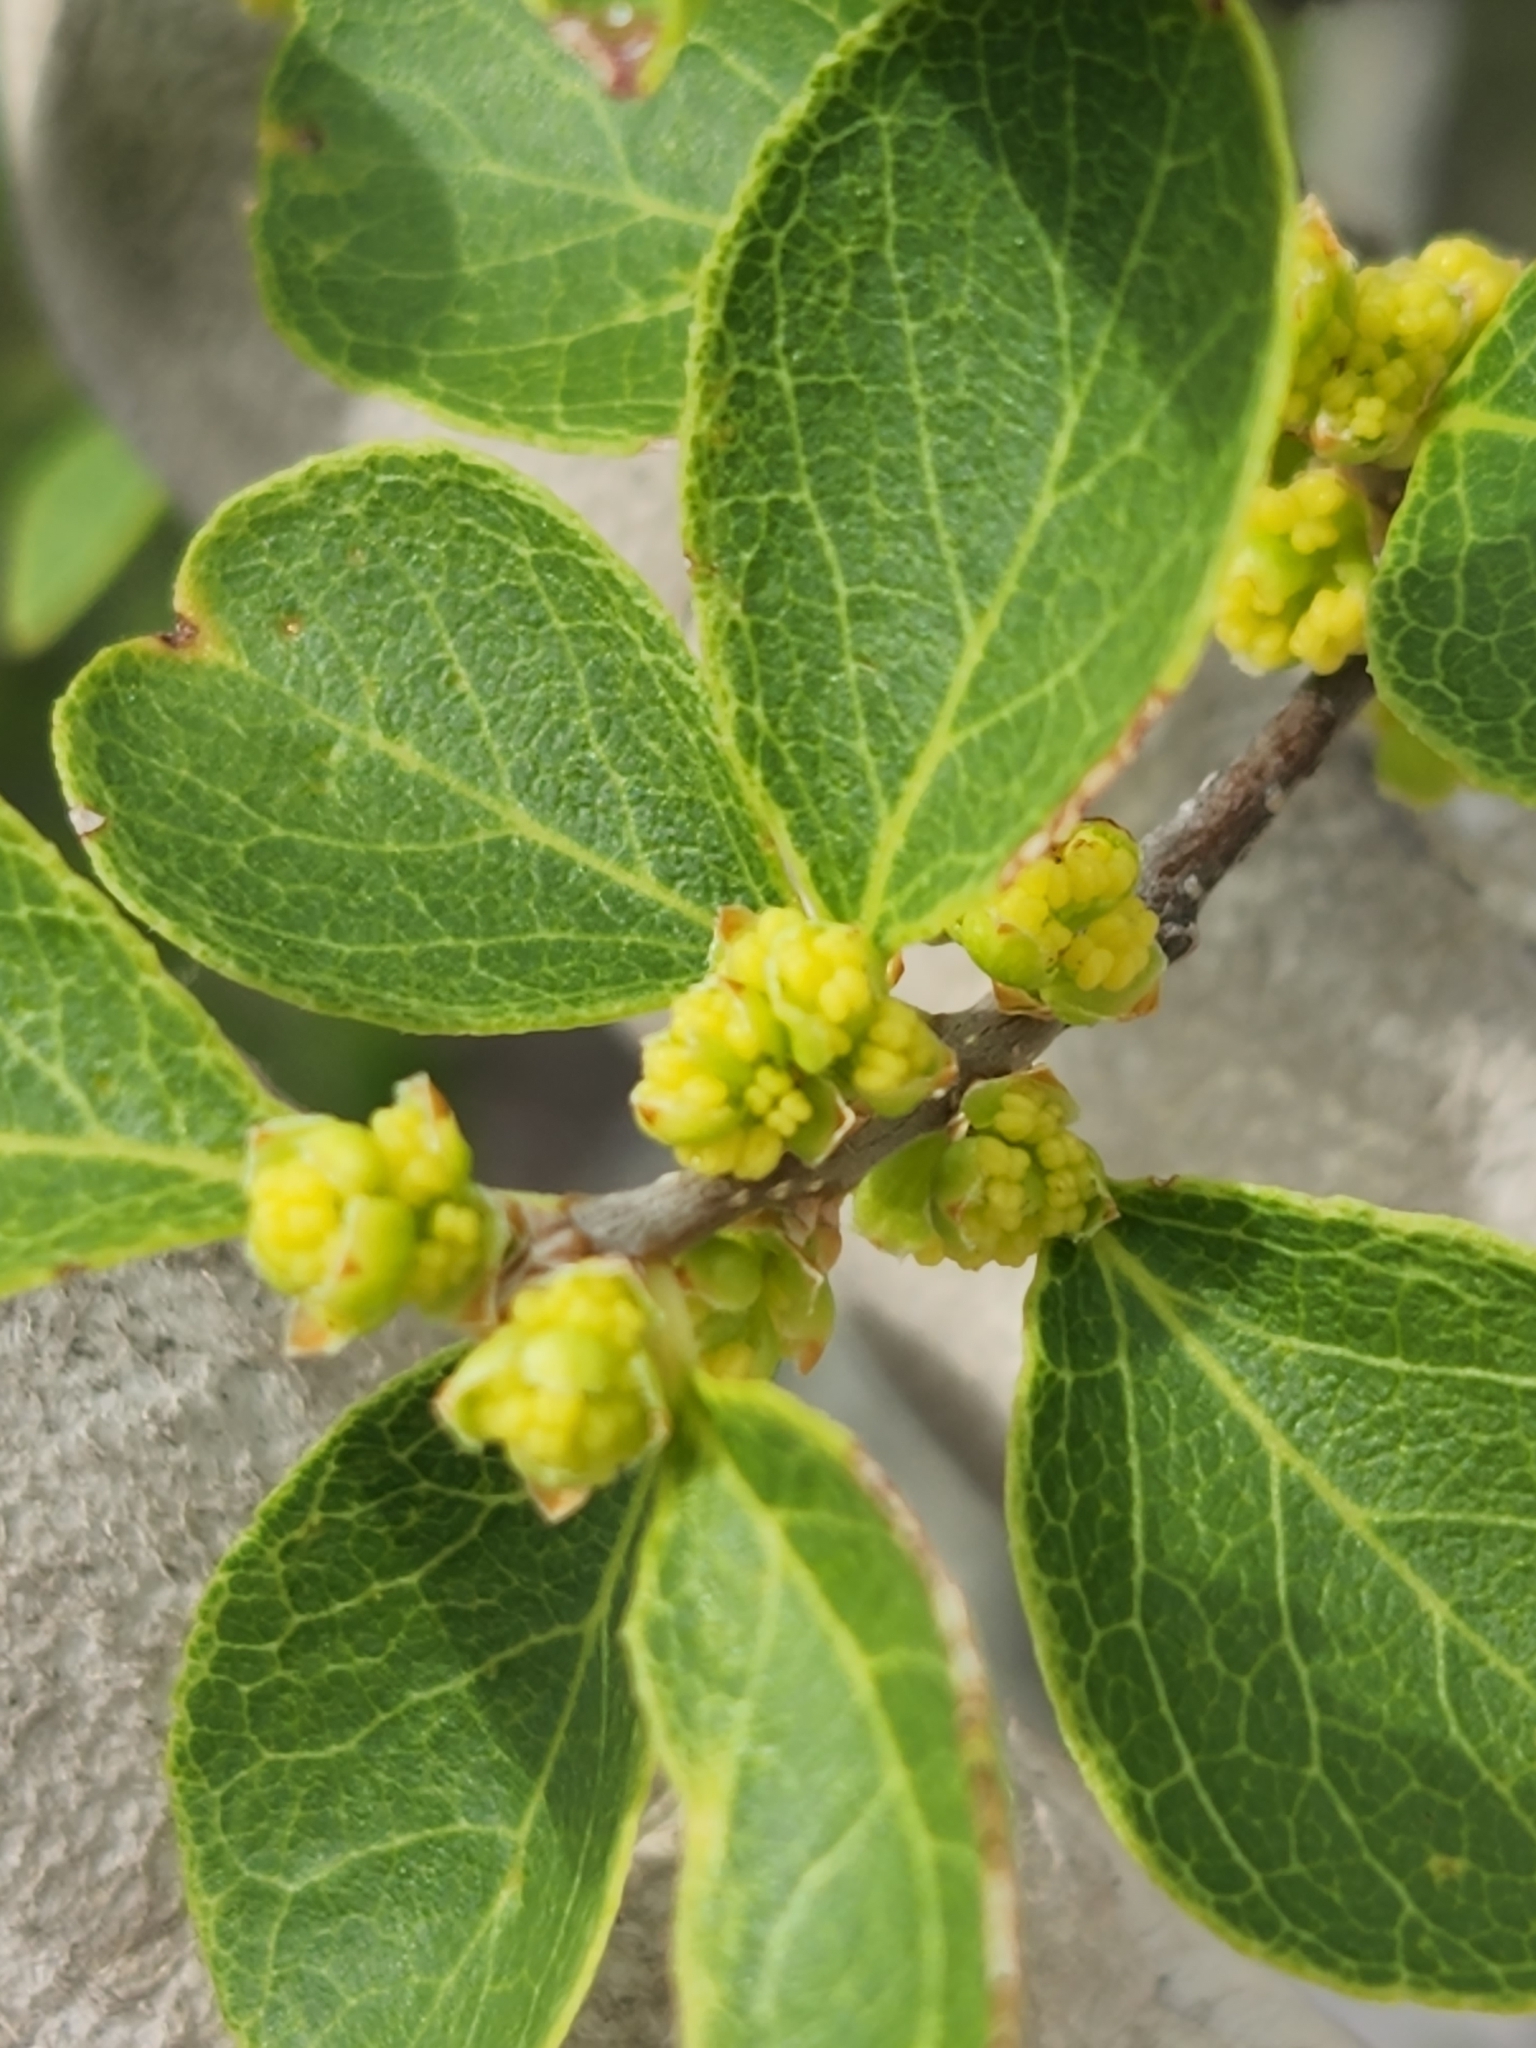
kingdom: Plantae
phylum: Tracheophyta
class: Magnoliopsida
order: Lamiales
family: Oleaceae
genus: Forestiera
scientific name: Forestiera reticulata
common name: Netleaf swamp-privet
